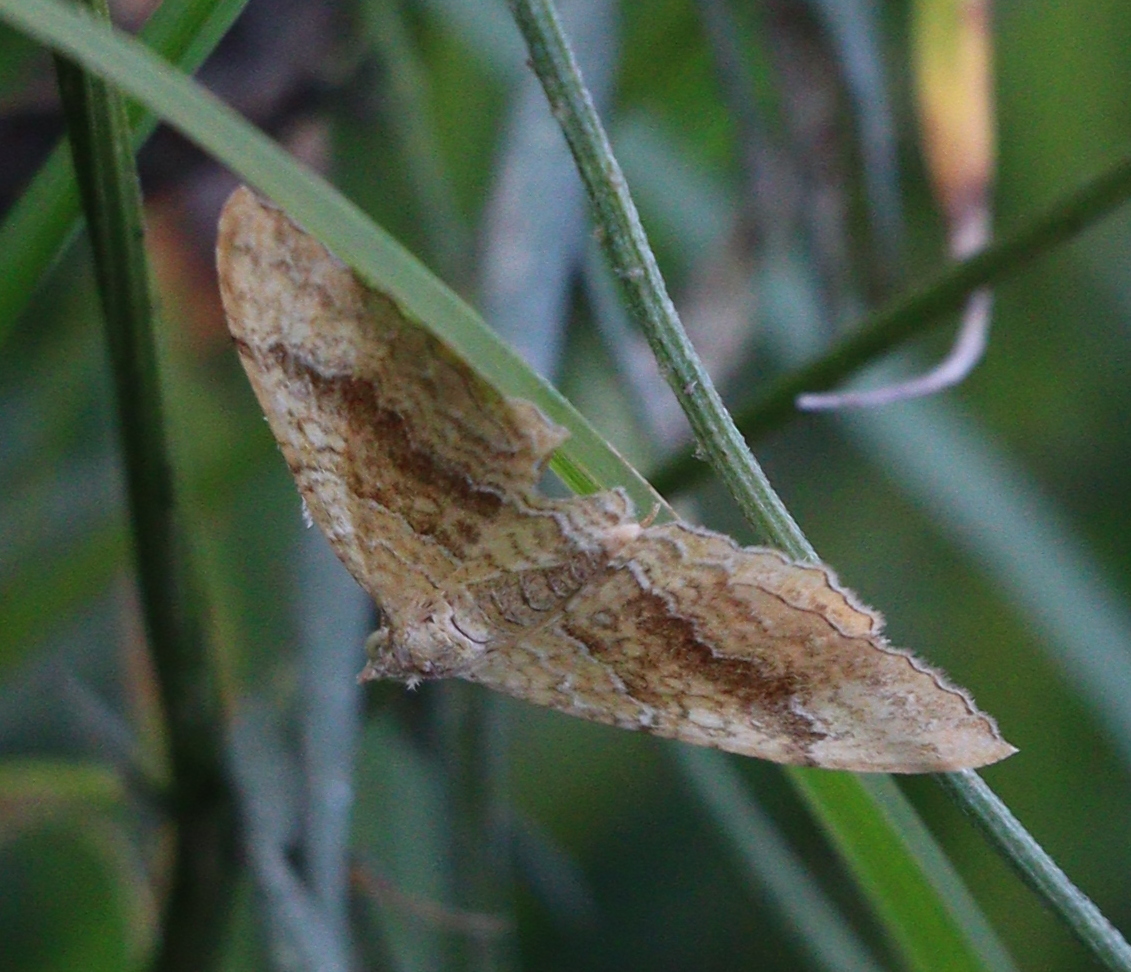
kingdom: Animalia
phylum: Arthropoda
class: Insecta
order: Lepidoptera
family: Geometridae
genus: Camptogramma
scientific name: Camptogramma bilineata
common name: Yellow shell
